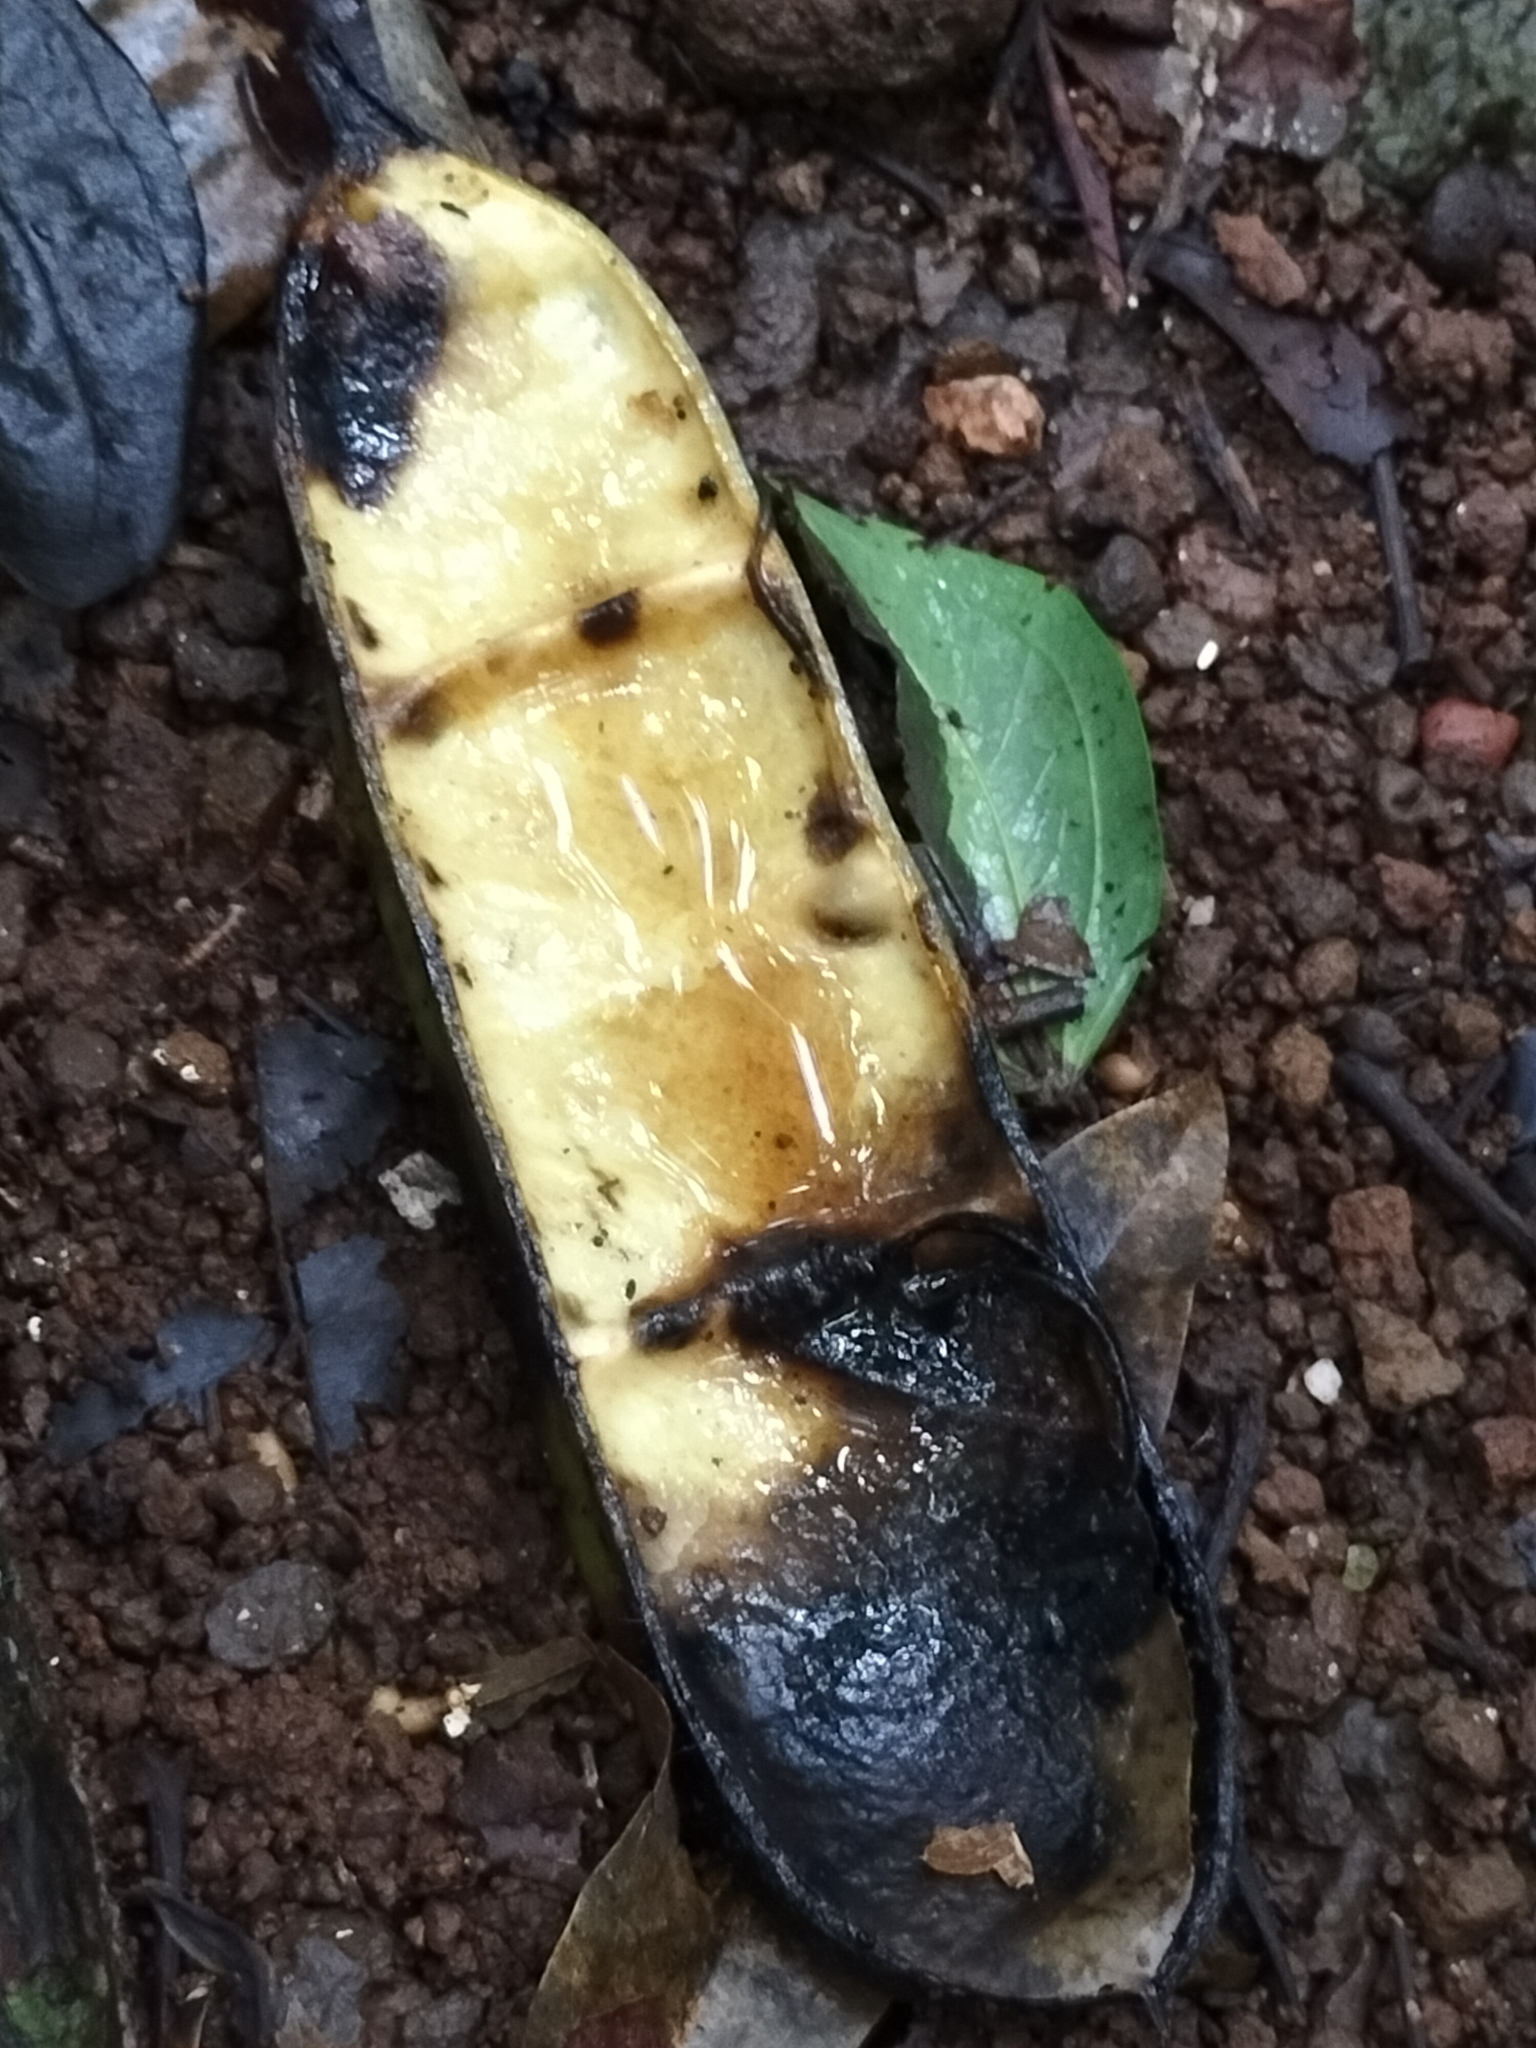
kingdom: Plantae
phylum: Tracheophyta
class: Magnoliopsida
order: Fabales
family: Fabaceae
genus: Mucuna
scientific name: Mucuna gigantea
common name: Black-bean
